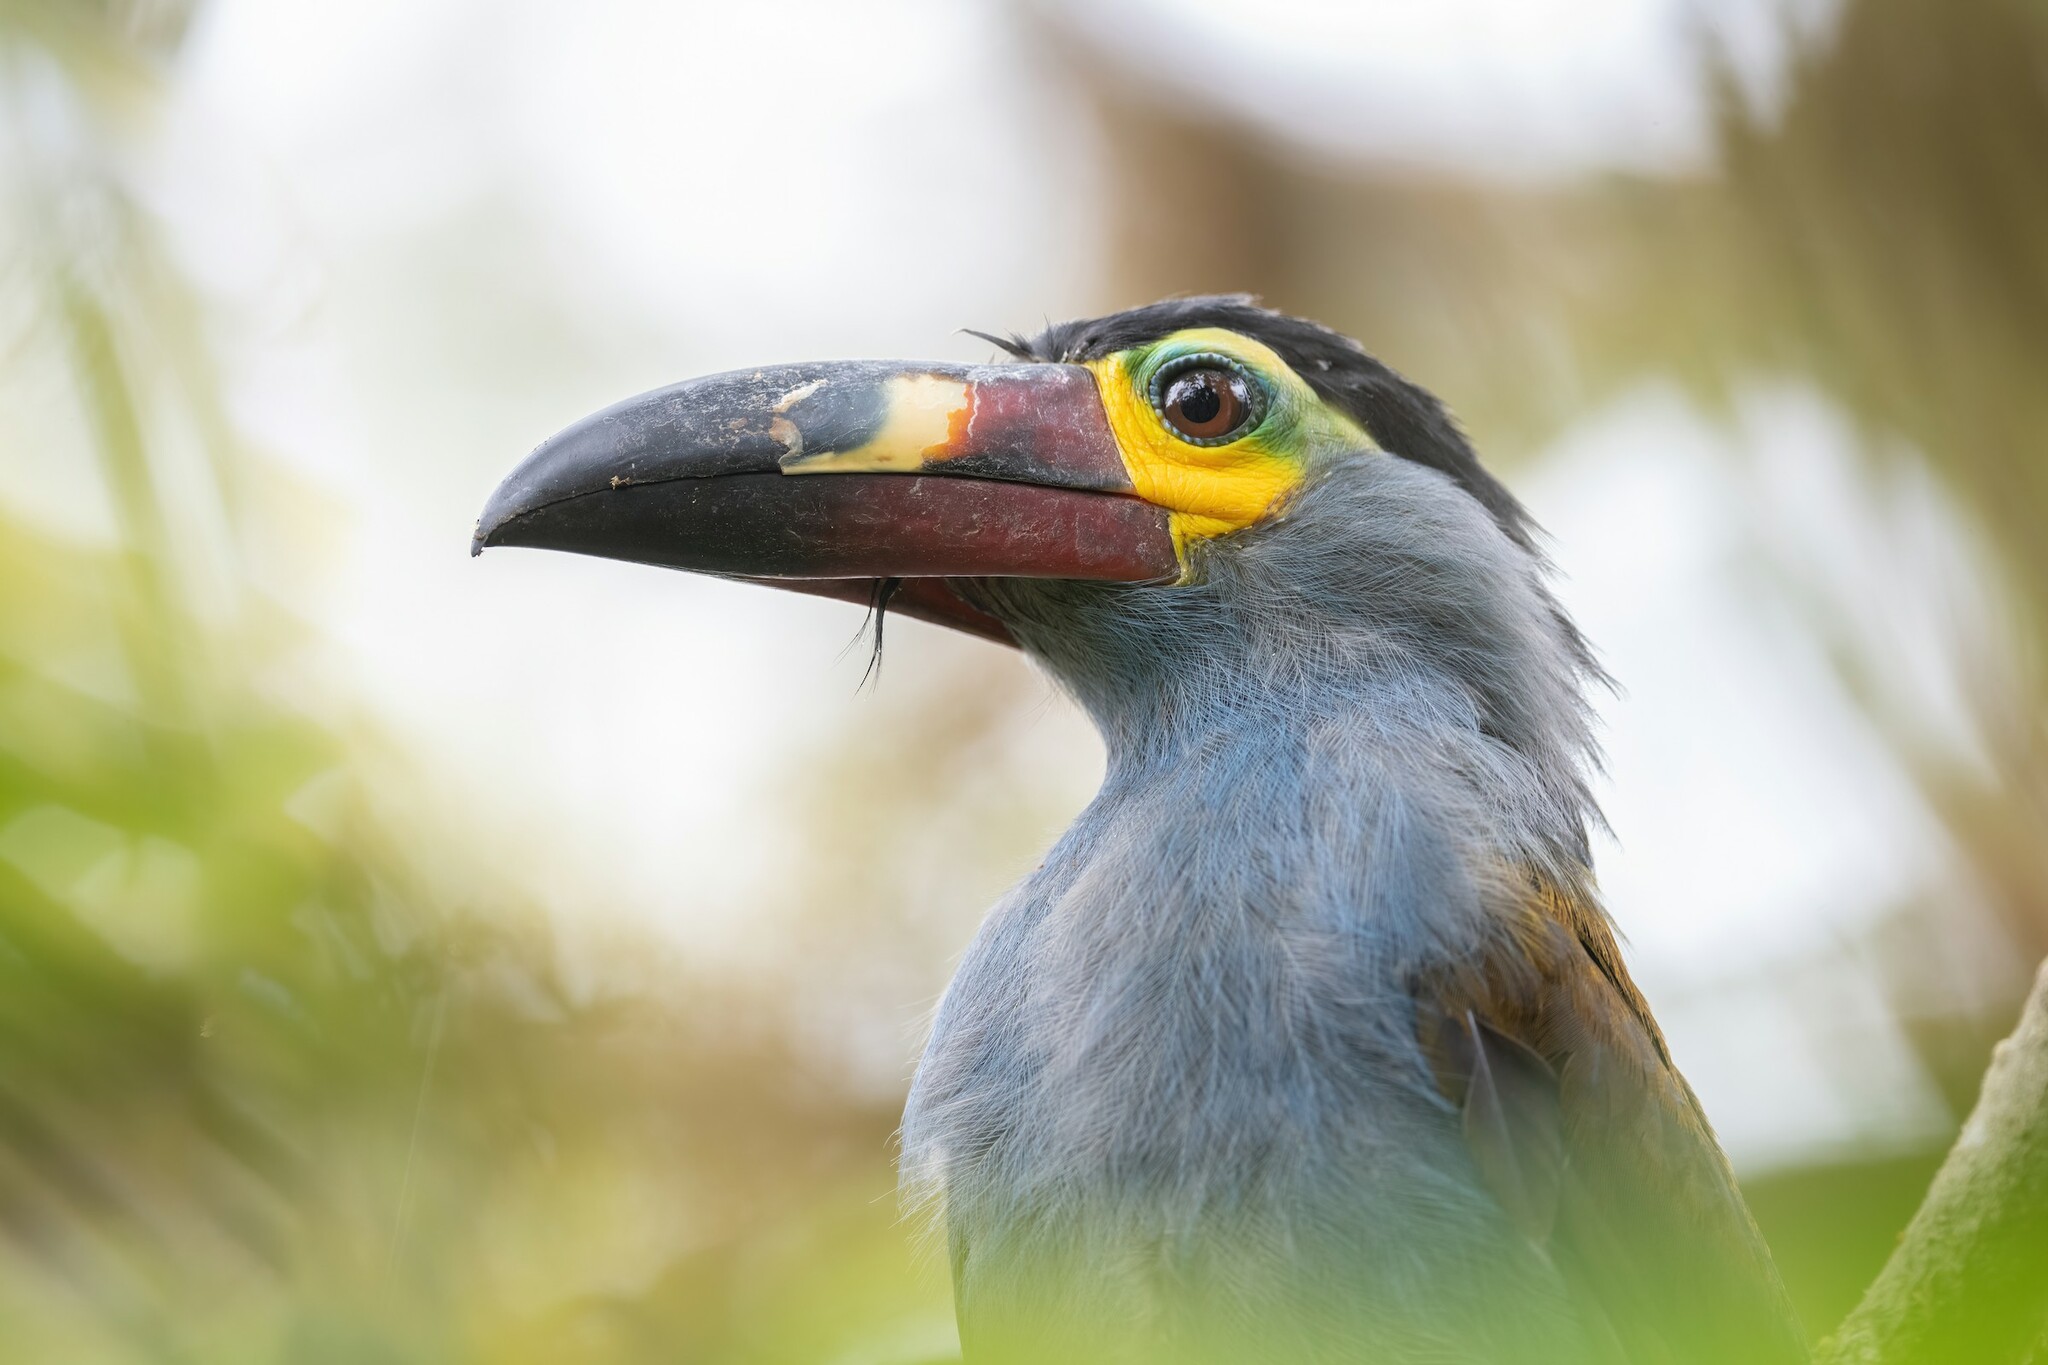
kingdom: Animalia
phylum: Chordata
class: Aves
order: Piciformes
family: Ramphastidae
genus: Andigena
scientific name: Andigena laminirostris
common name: Plate-billed mountain toucan
